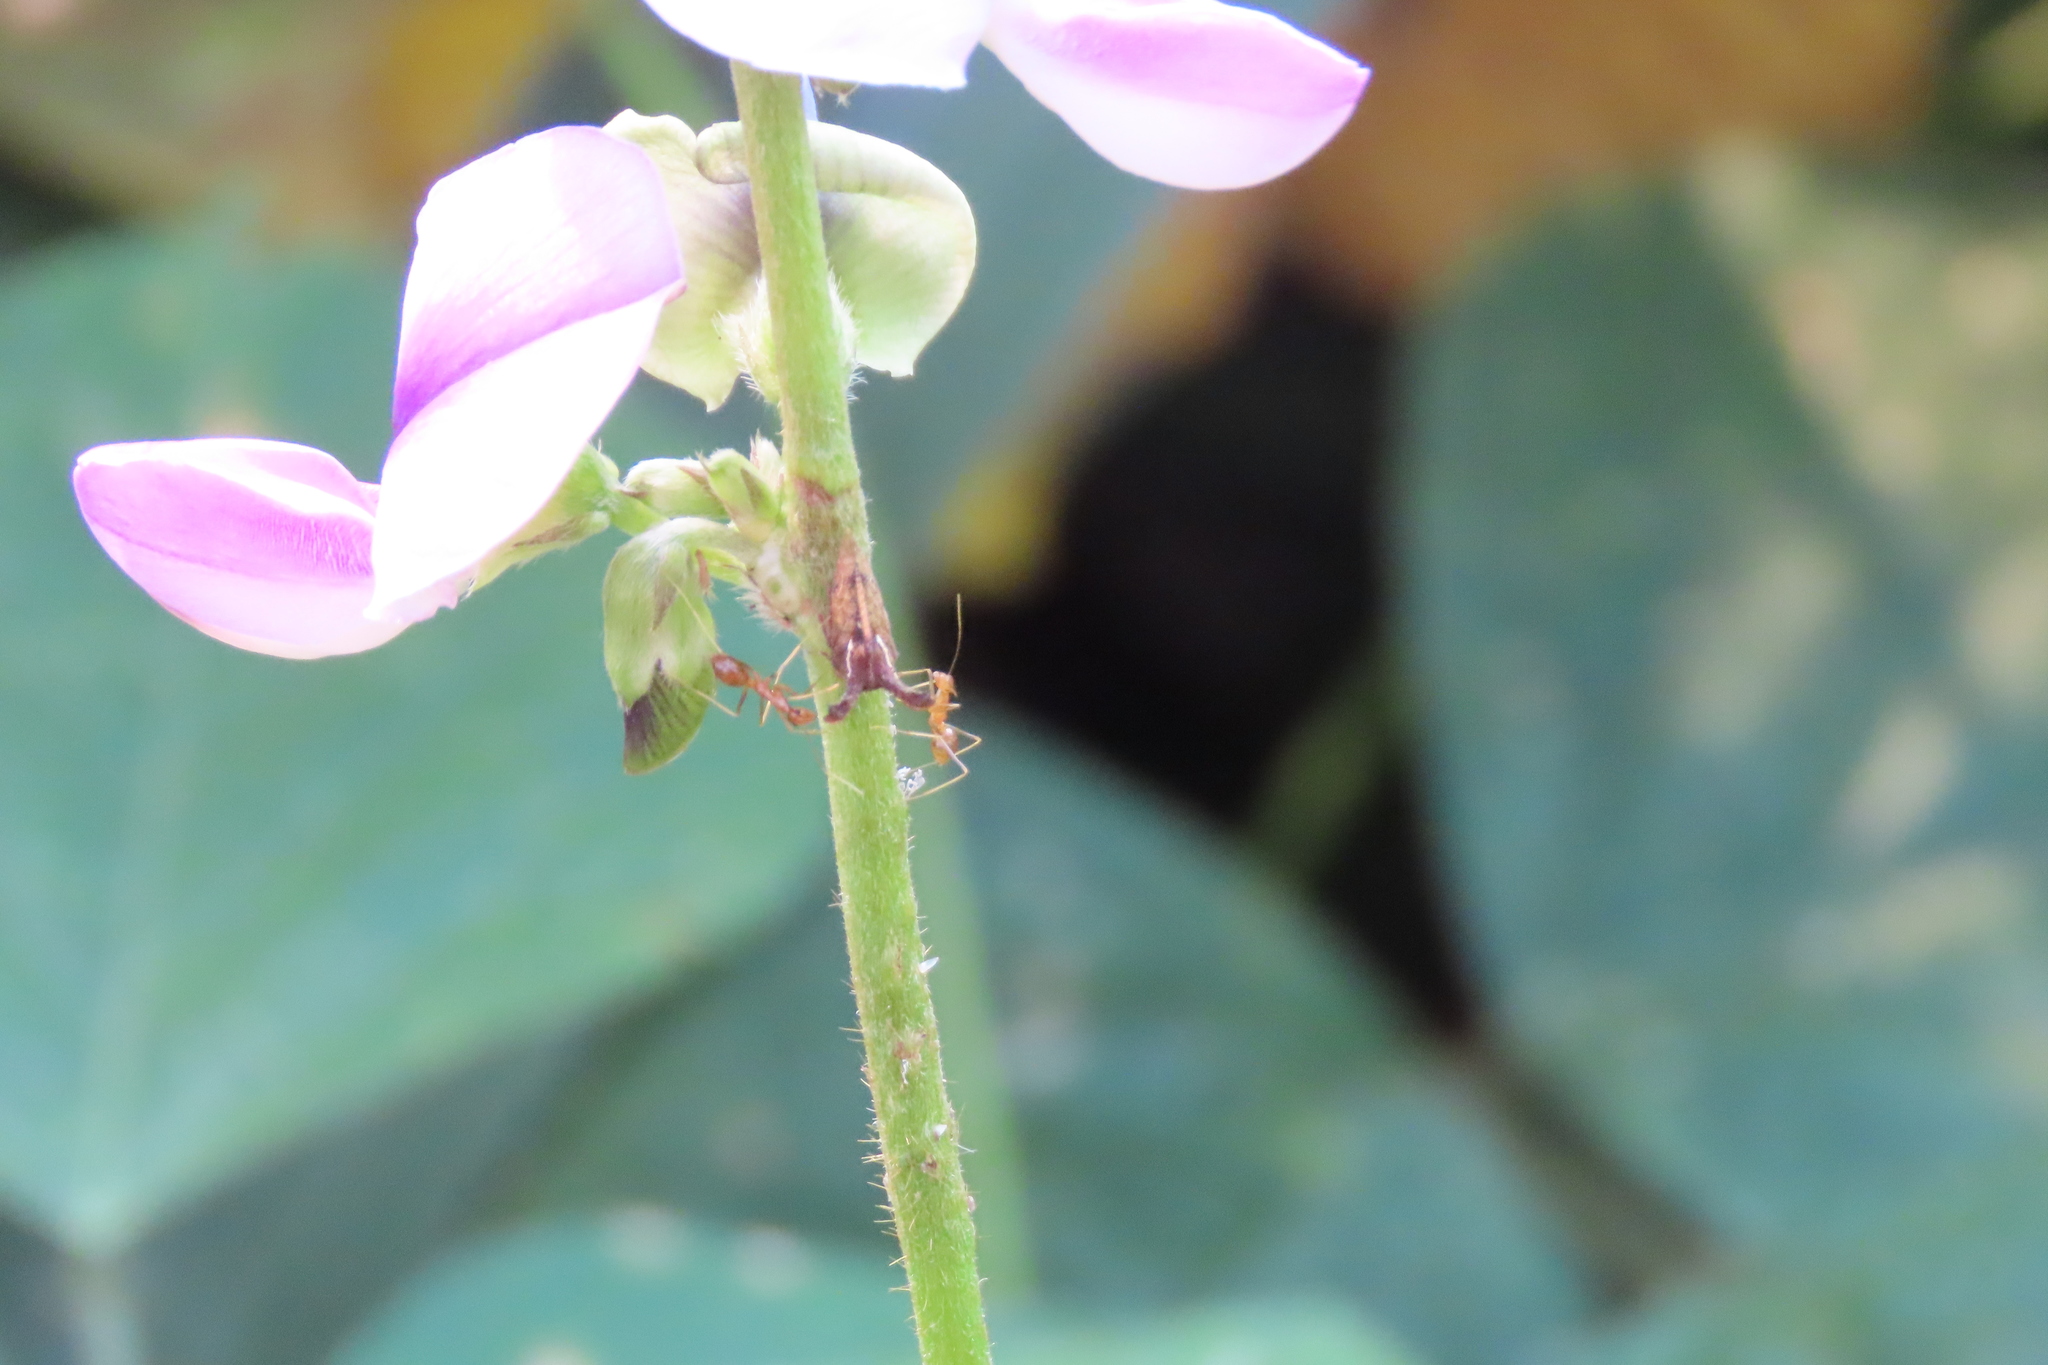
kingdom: Animalia
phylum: Arthropoda
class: Insecta
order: Hymenoptera
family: Formicidae
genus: Anoplolepis
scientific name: Anoplolepis gracilipes
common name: Ant
